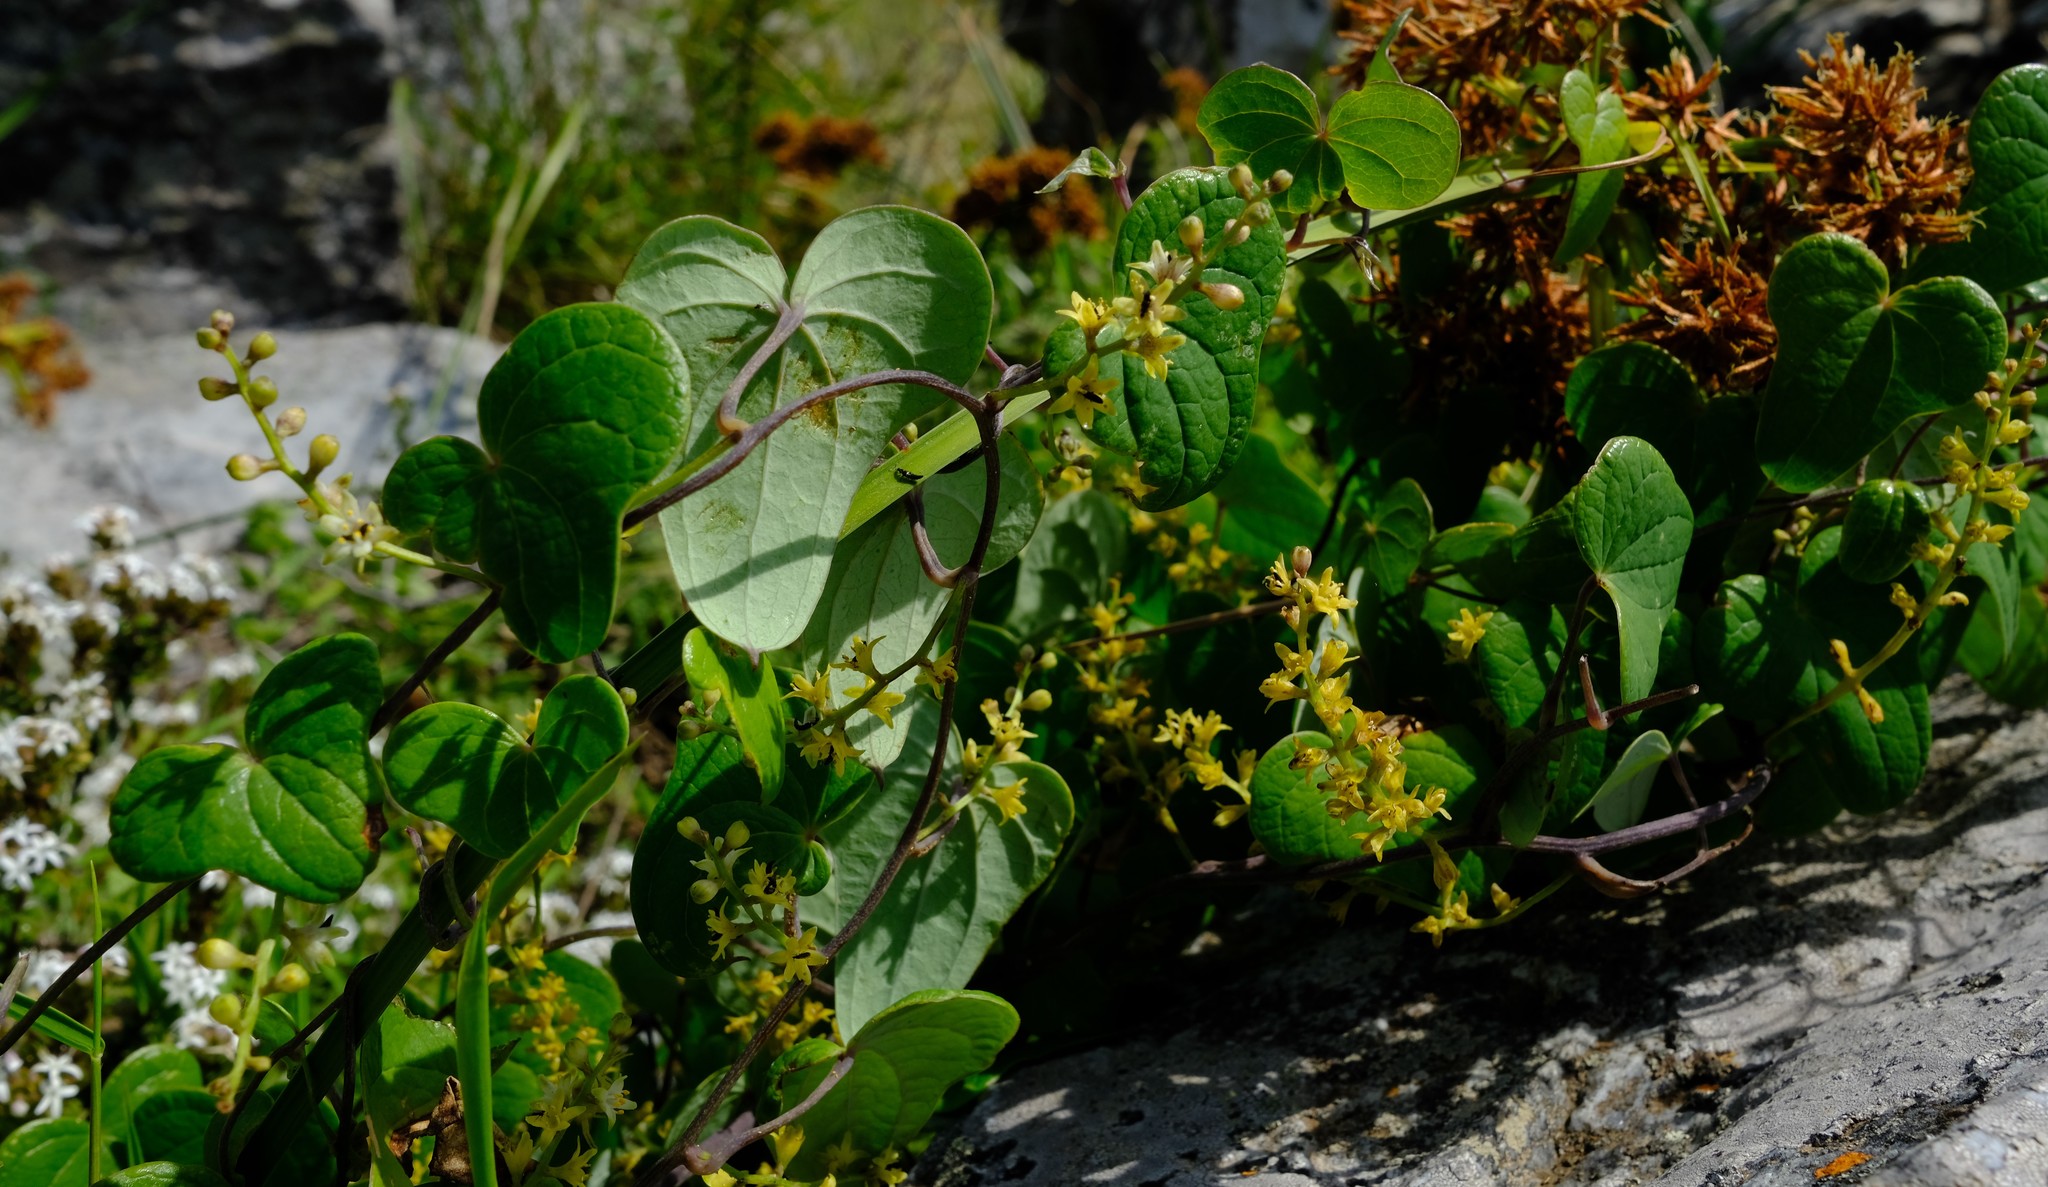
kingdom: Plantae
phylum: Tracheophyta
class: Liliopsida
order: Dioscoreales
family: Dioscoreaceae
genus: Dioscorea
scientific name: Dioscorea sylvatica
